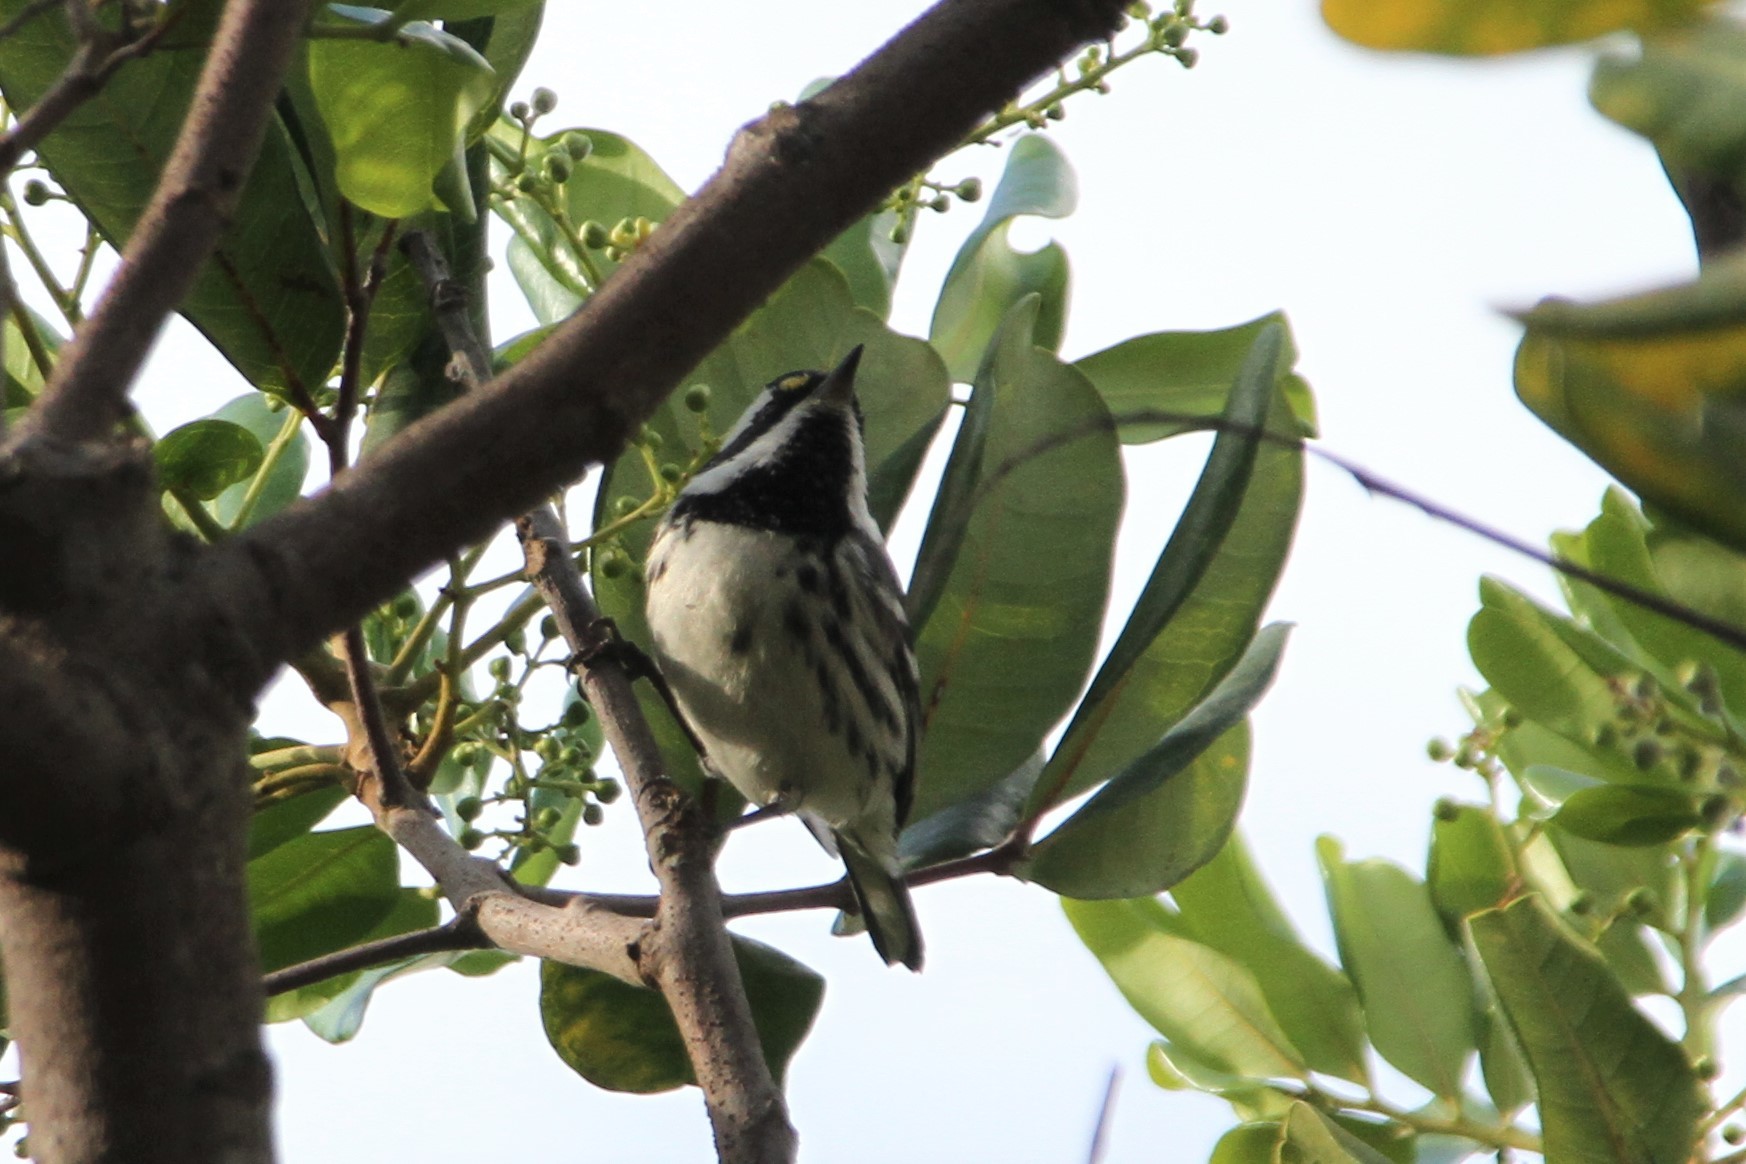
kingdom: Animalia
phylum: Chordata
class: Aves
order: Passeriformes
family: Parulidae
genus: Setophaga
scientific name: Setophaga nigrescens
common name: Black-throated gray warbler
